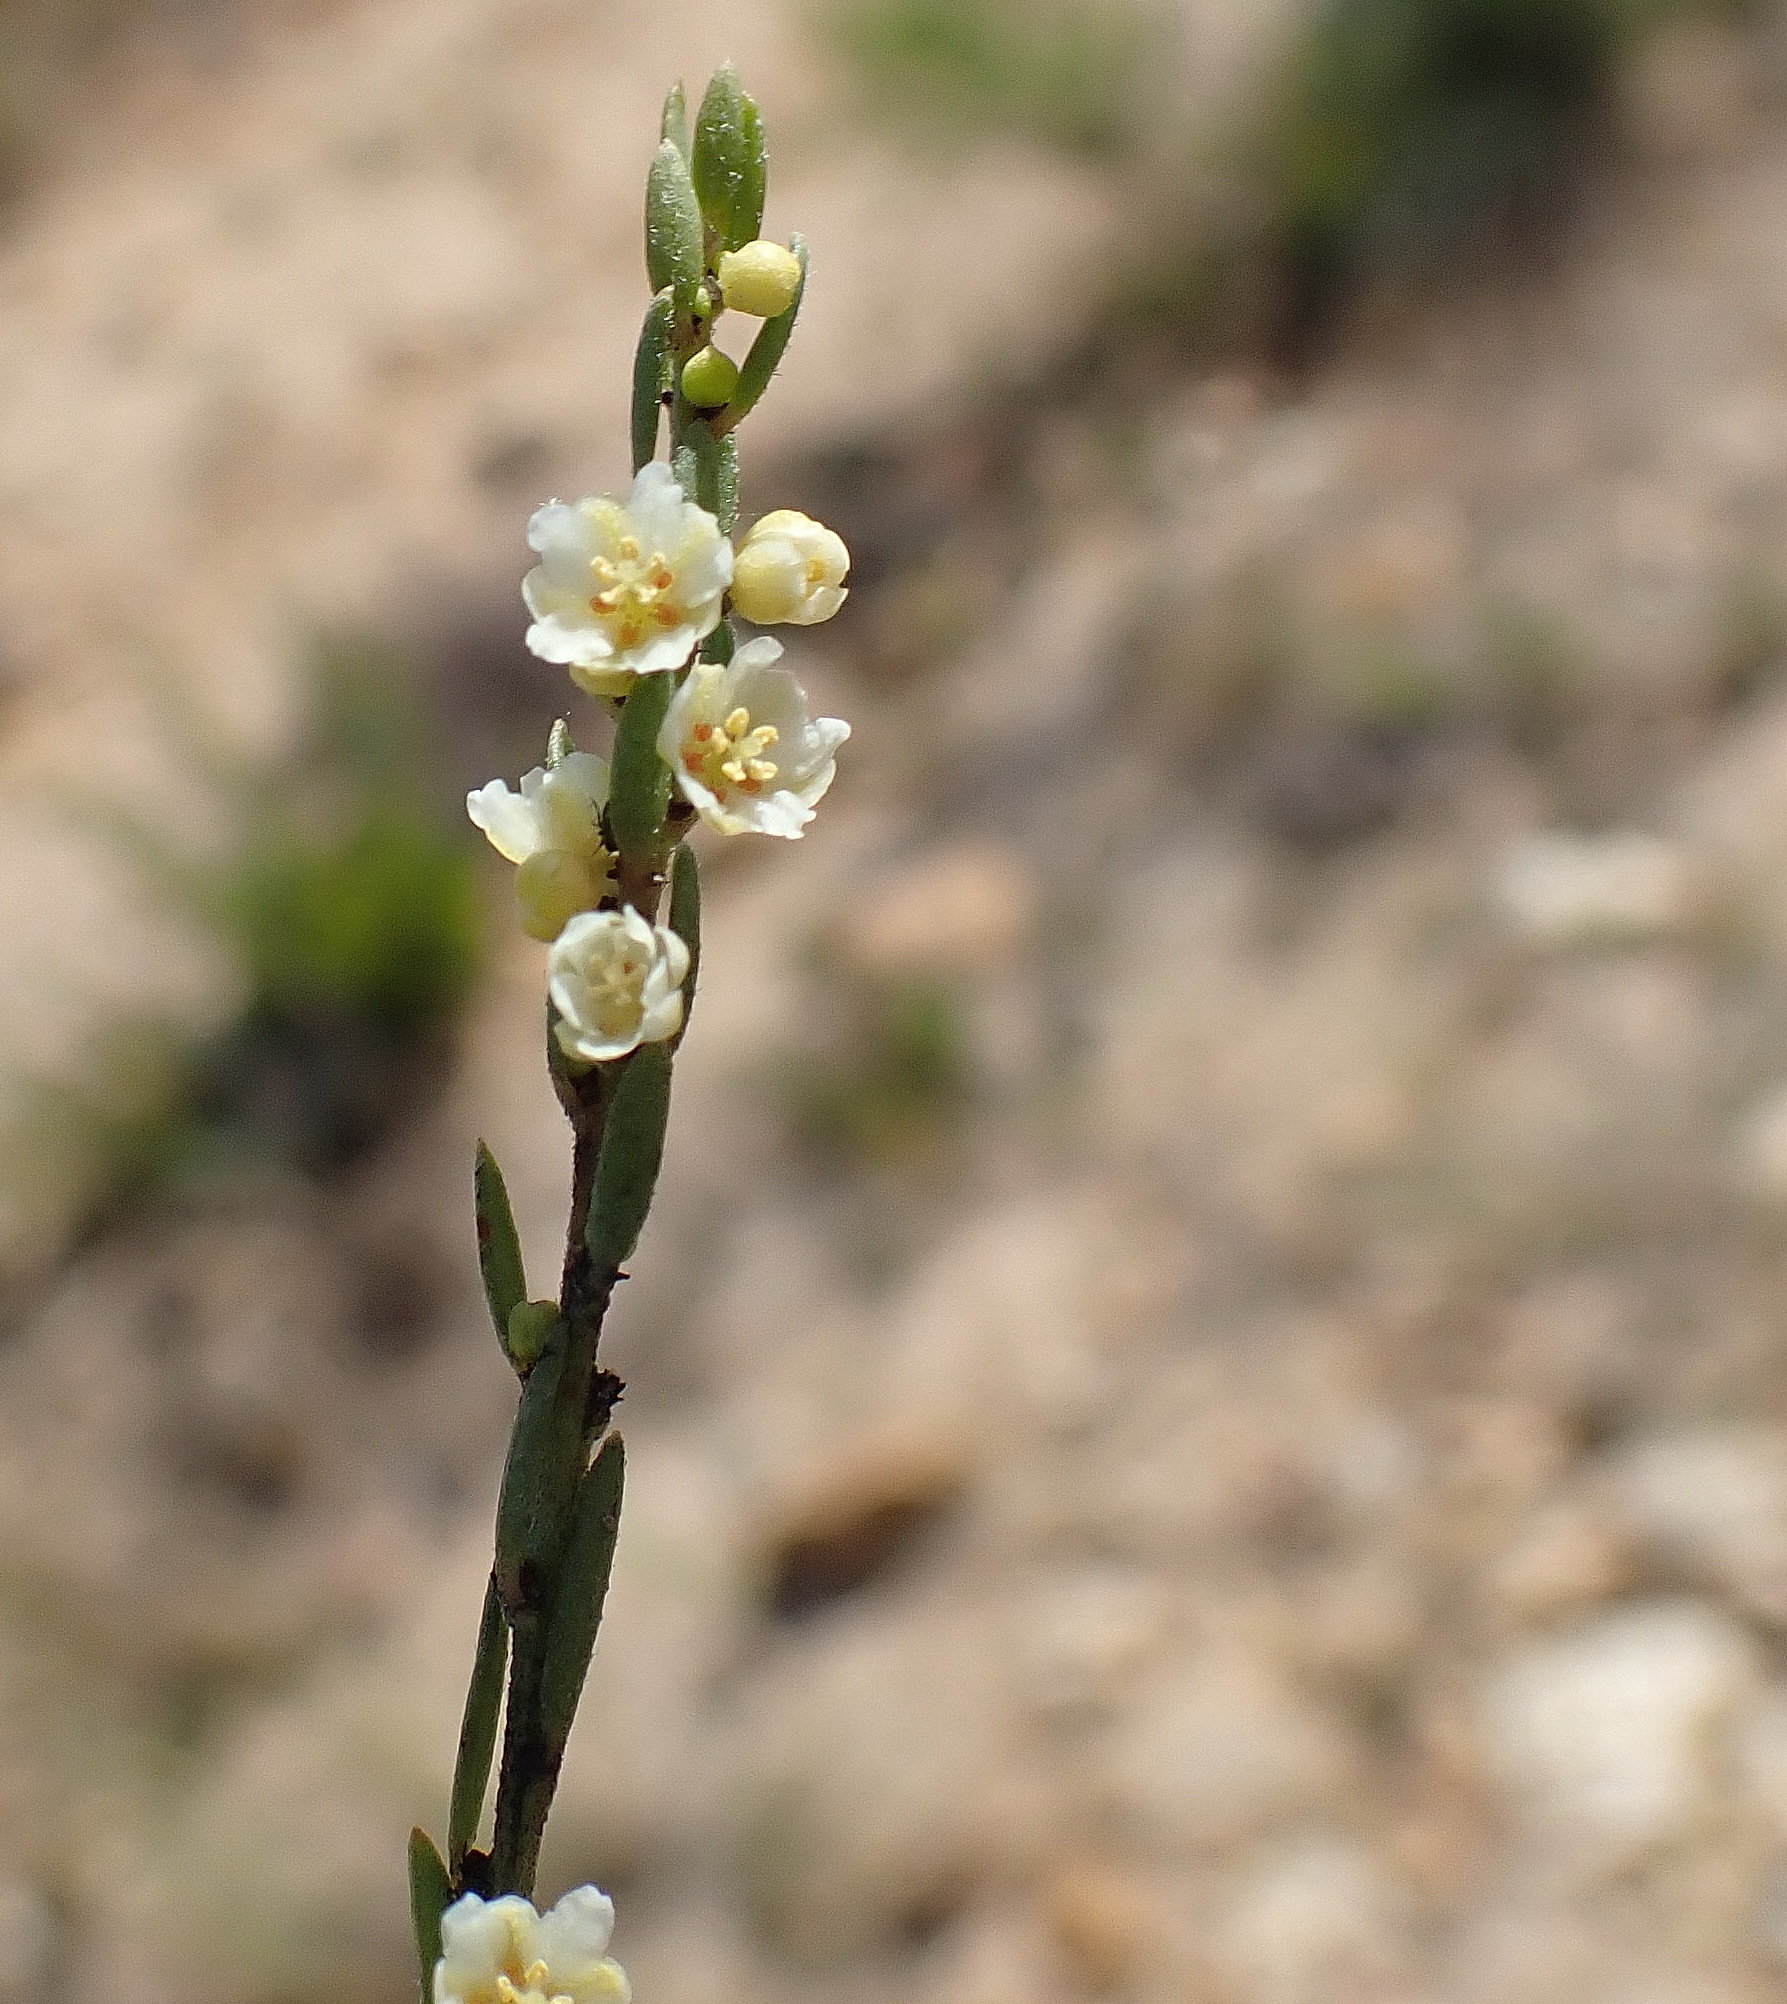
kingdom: Plantae
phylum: Tracheophyta
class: Magnoliopsida
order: Malpighiales
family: Peraceae
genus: Clutia
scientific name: Clutia ericoides
